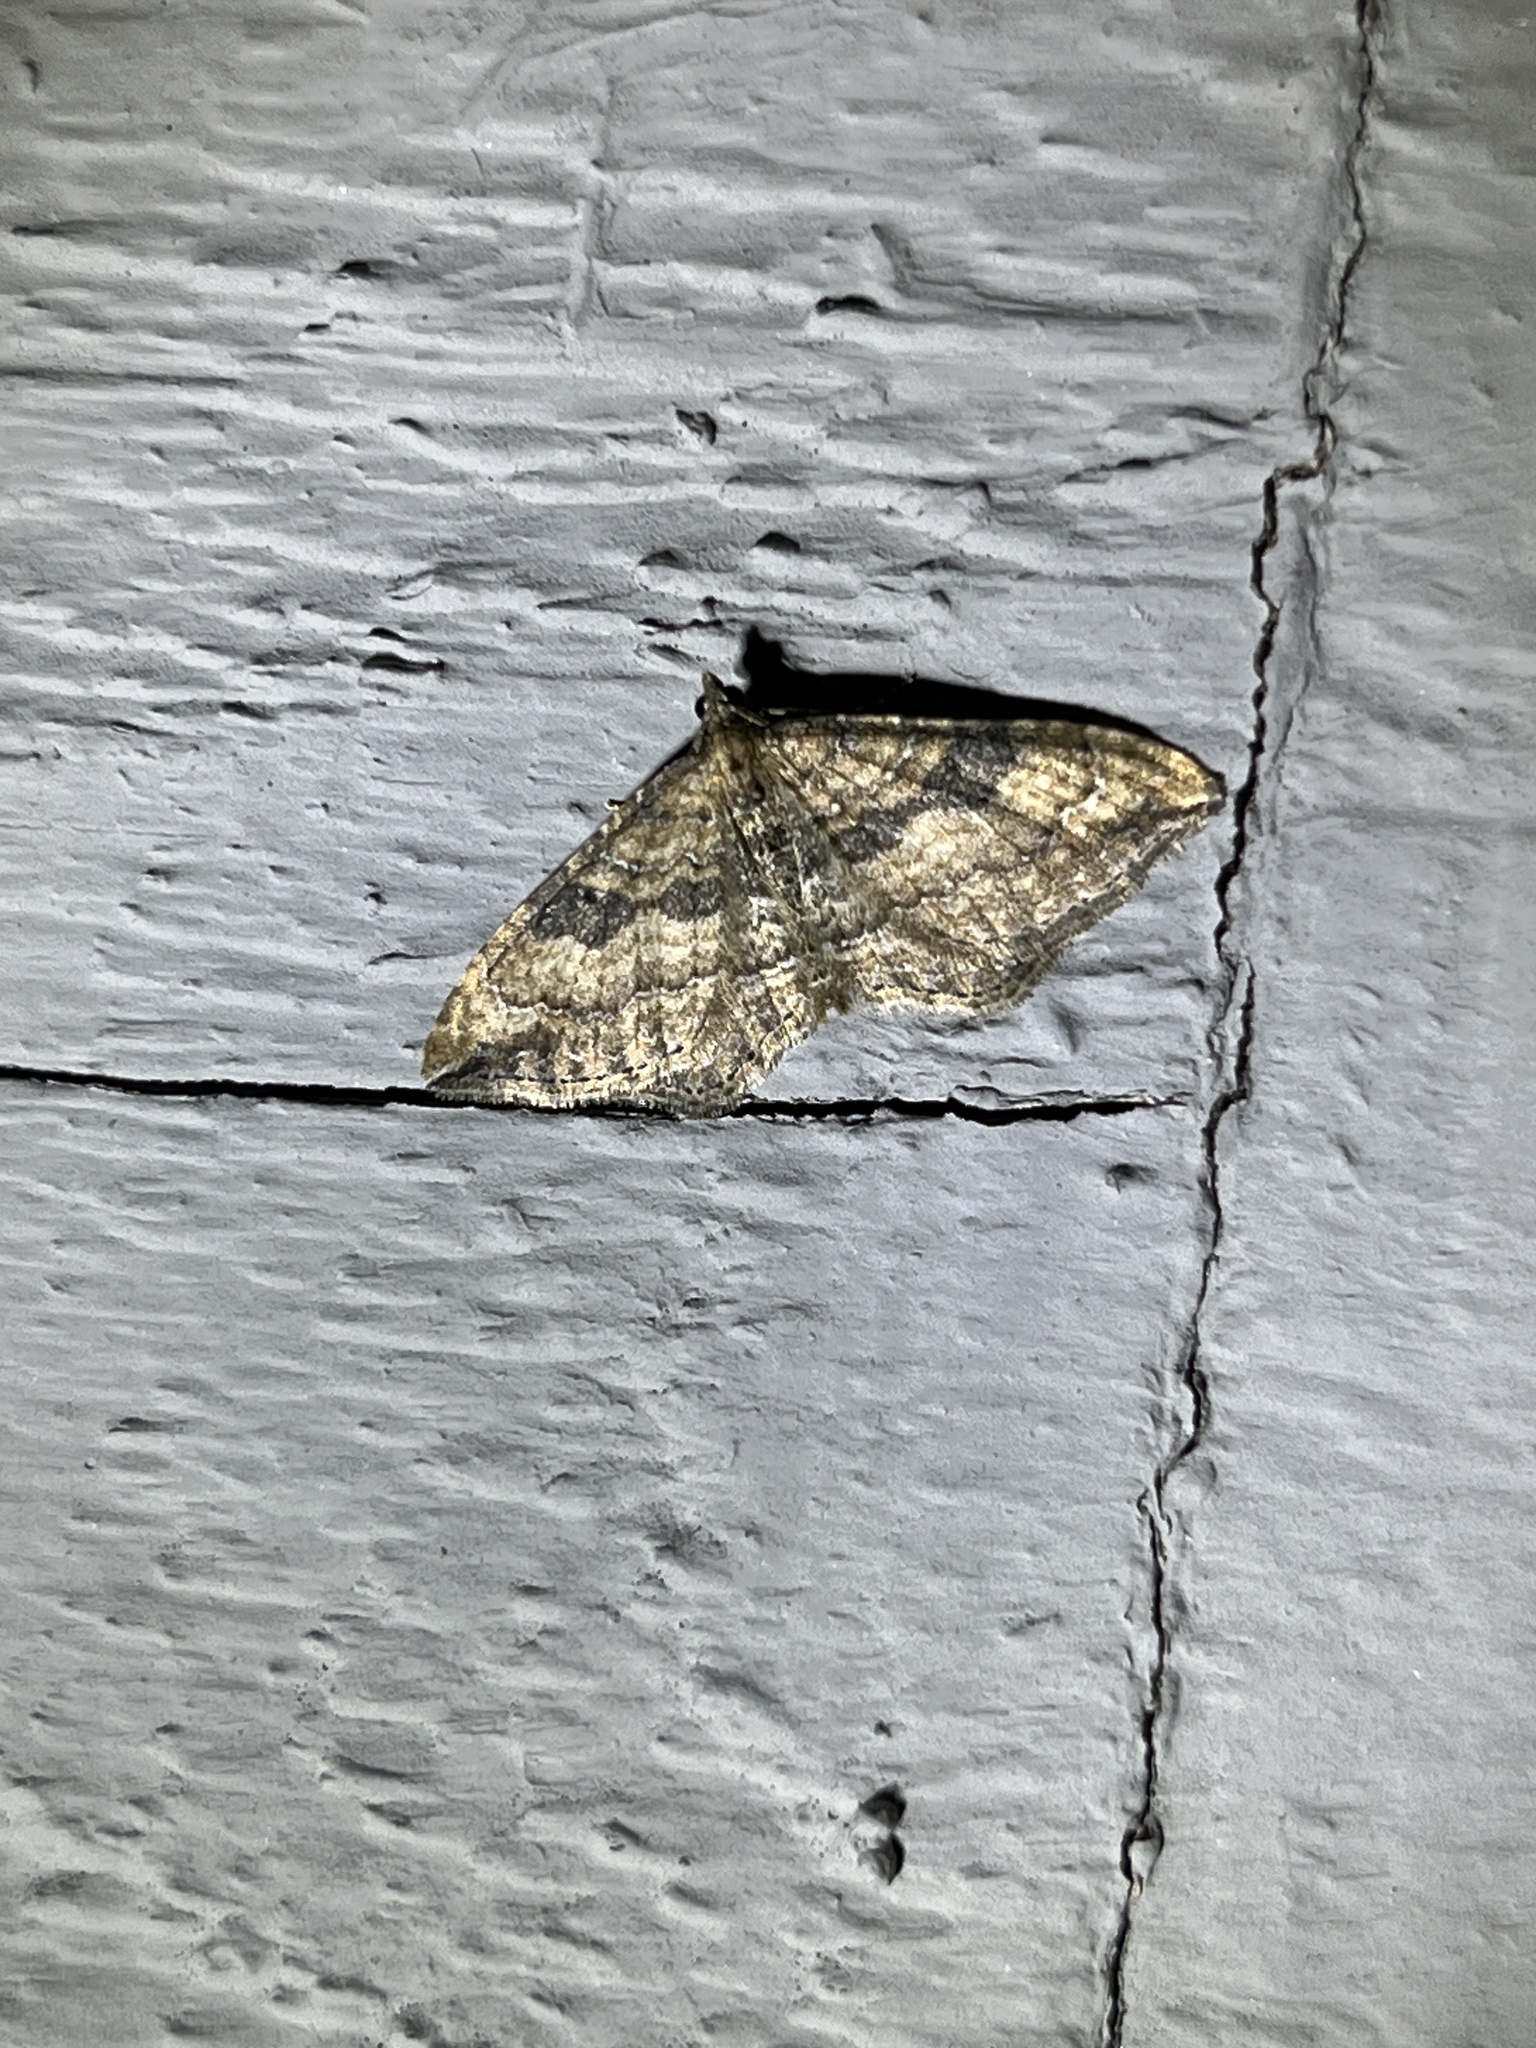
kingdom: Animalia
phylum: Arthropoda
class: Insecta
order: Lepidoptera
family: Geometridae
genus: Orthonama
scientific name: Orthonama obstipata
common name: The gem
